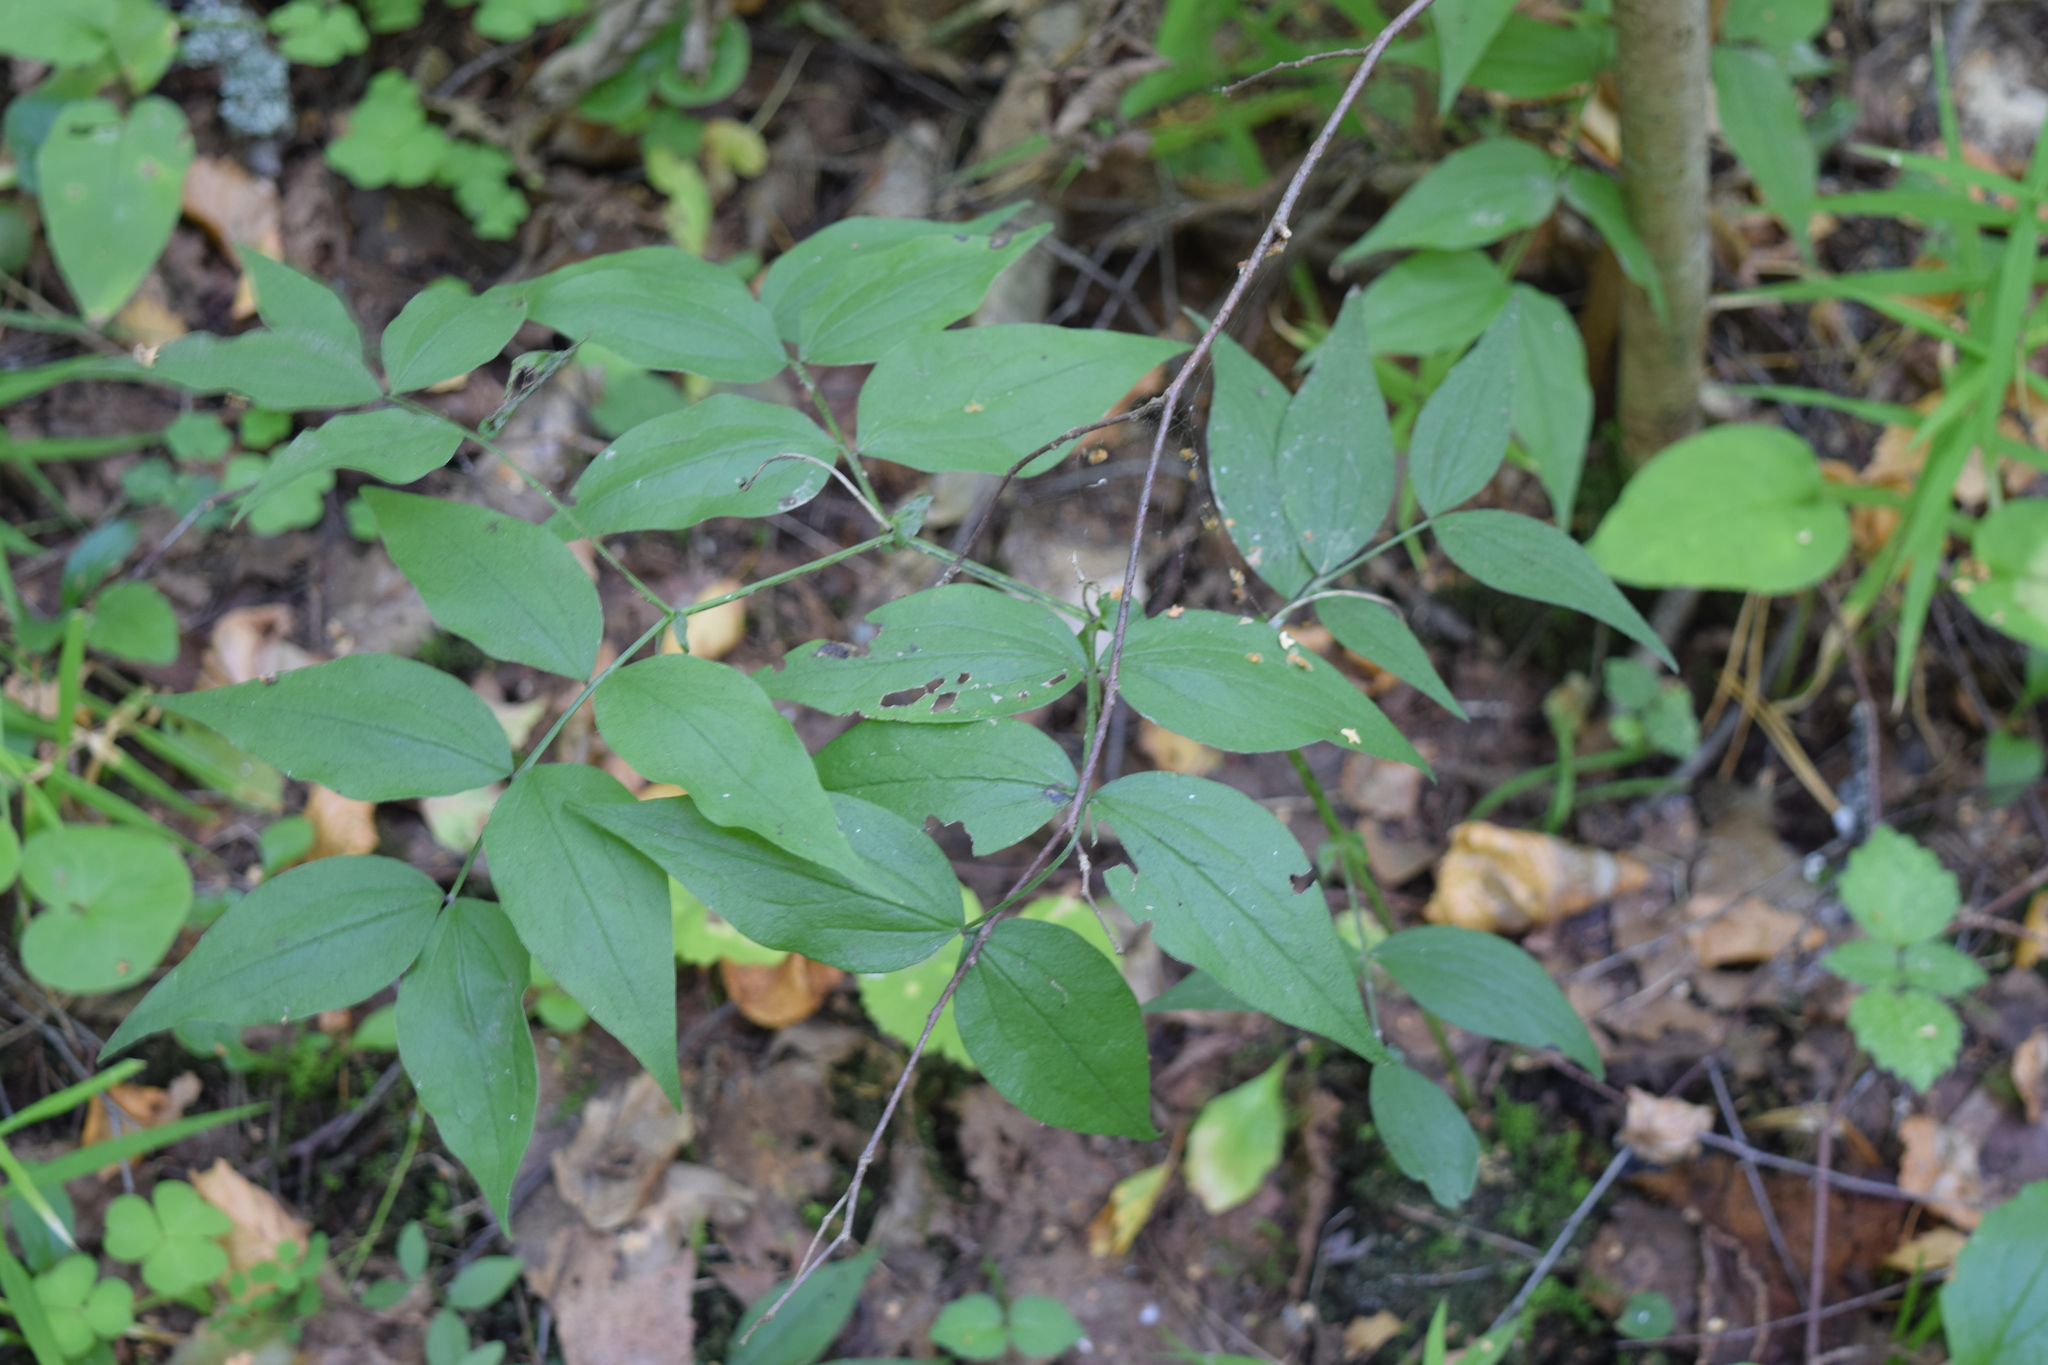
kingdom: Plantae
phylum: Tracheophyta
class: Magnoliopsida
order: Fabales
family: Fabaceae
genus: Lathyrus
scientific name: Lathyrus vernus
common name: Spring pea
